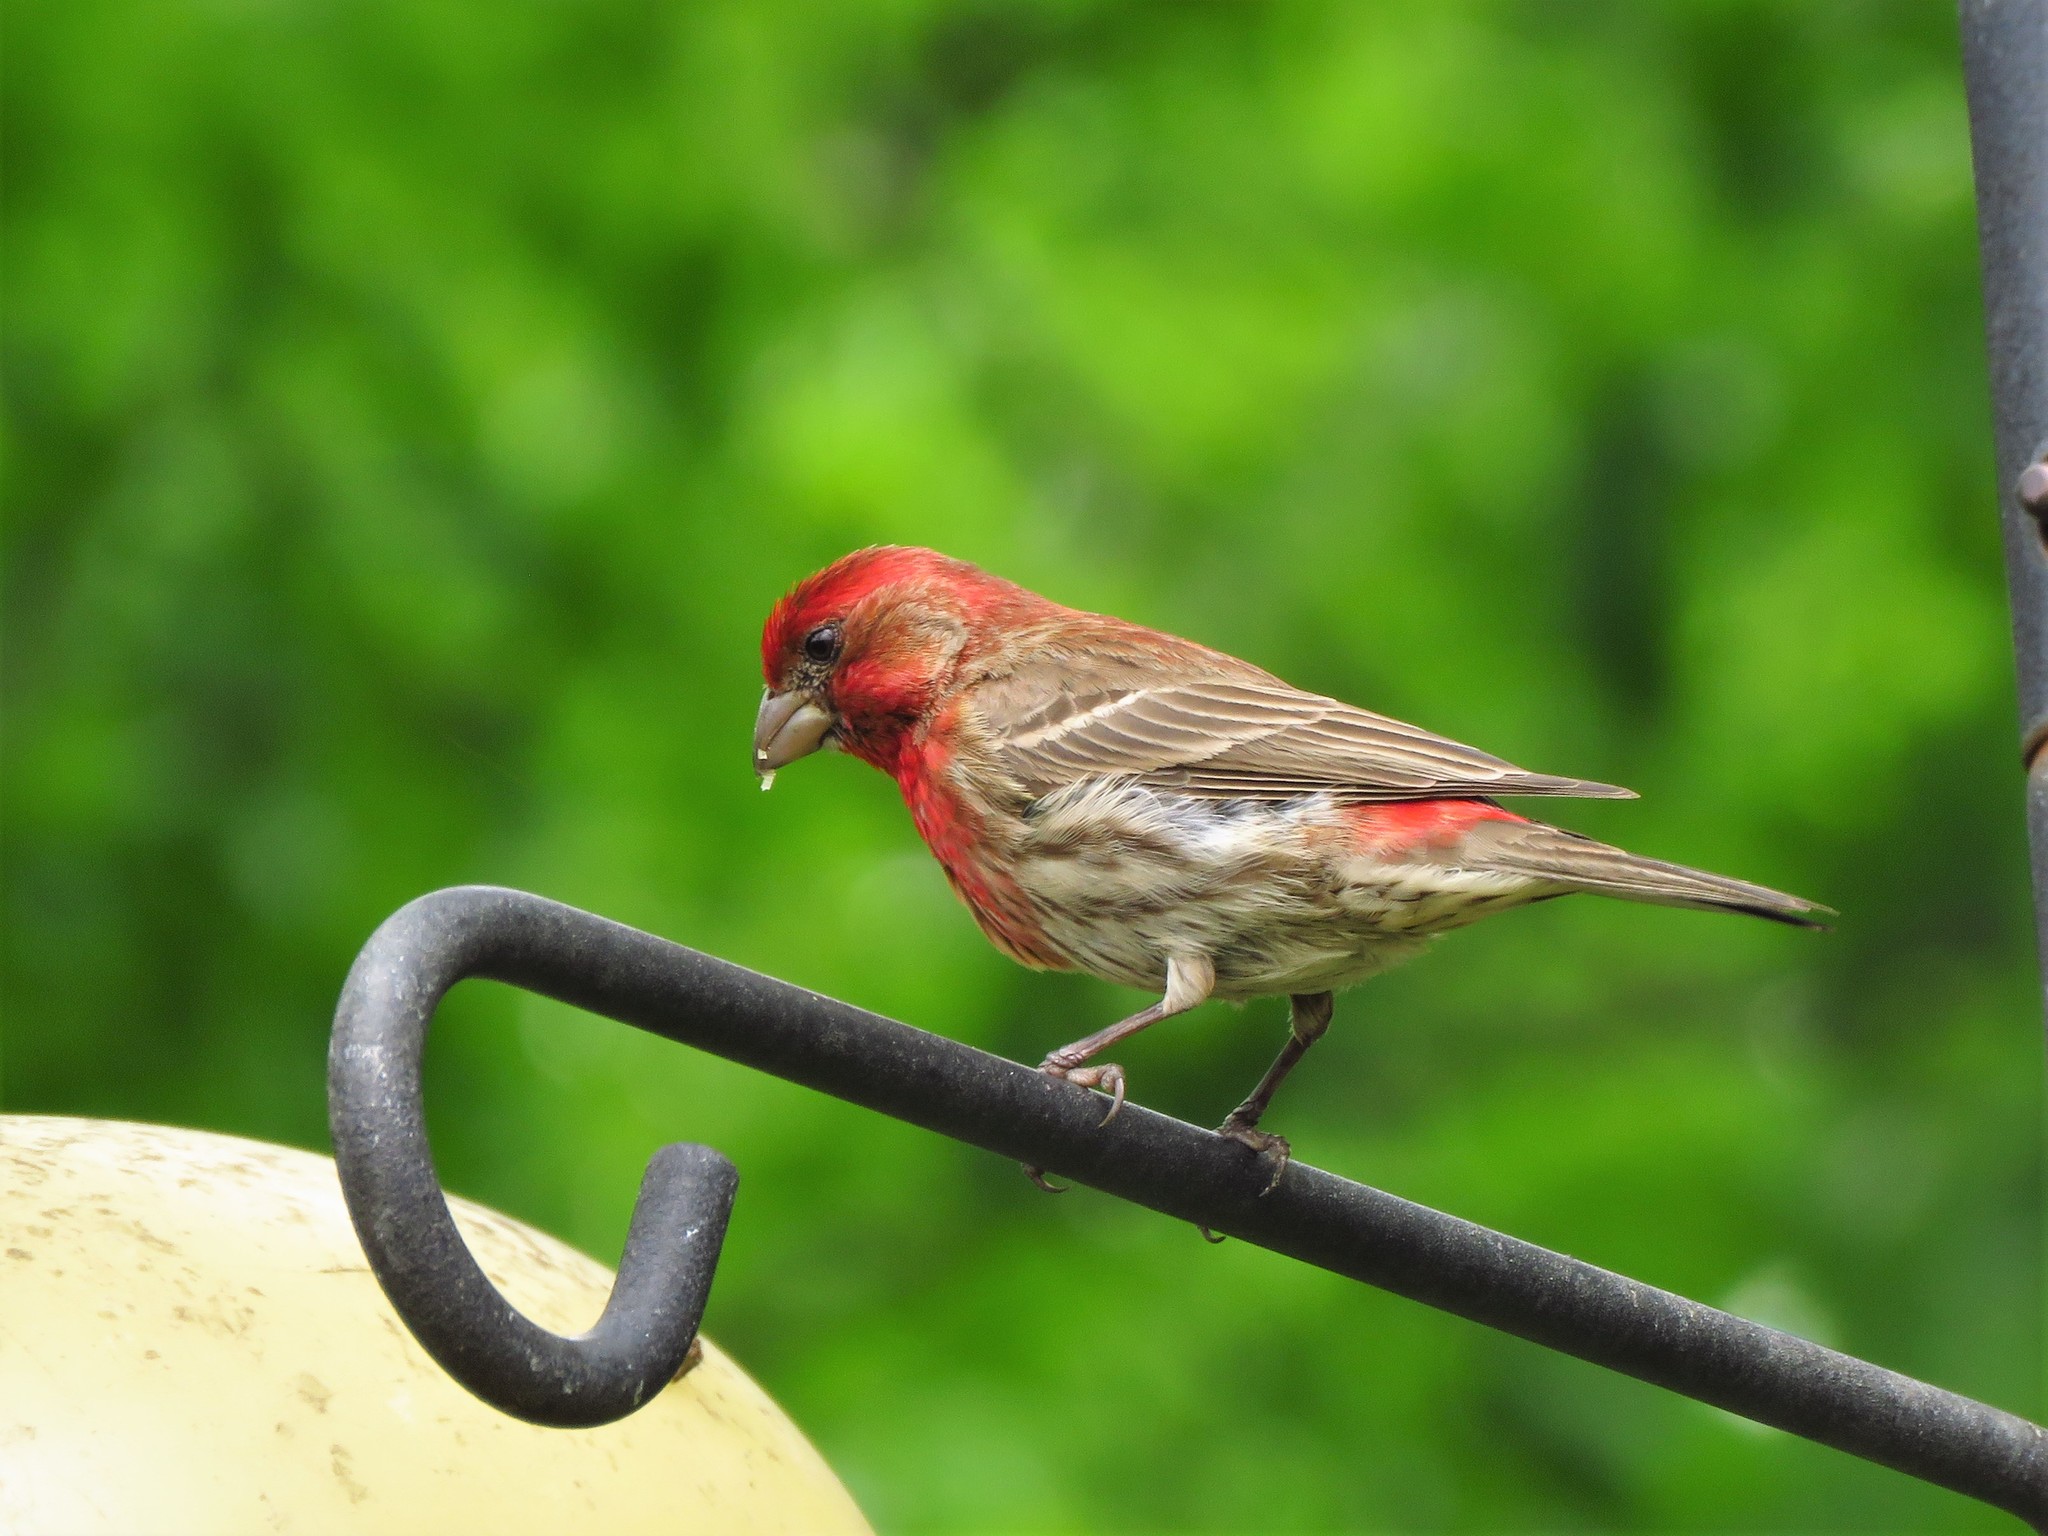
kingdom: Animalia
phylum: Chordata
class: Aves
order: Passeriformes
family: Fringillidae
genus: Haemorhous
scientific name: Haemorhous mexicanus
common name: House finch
